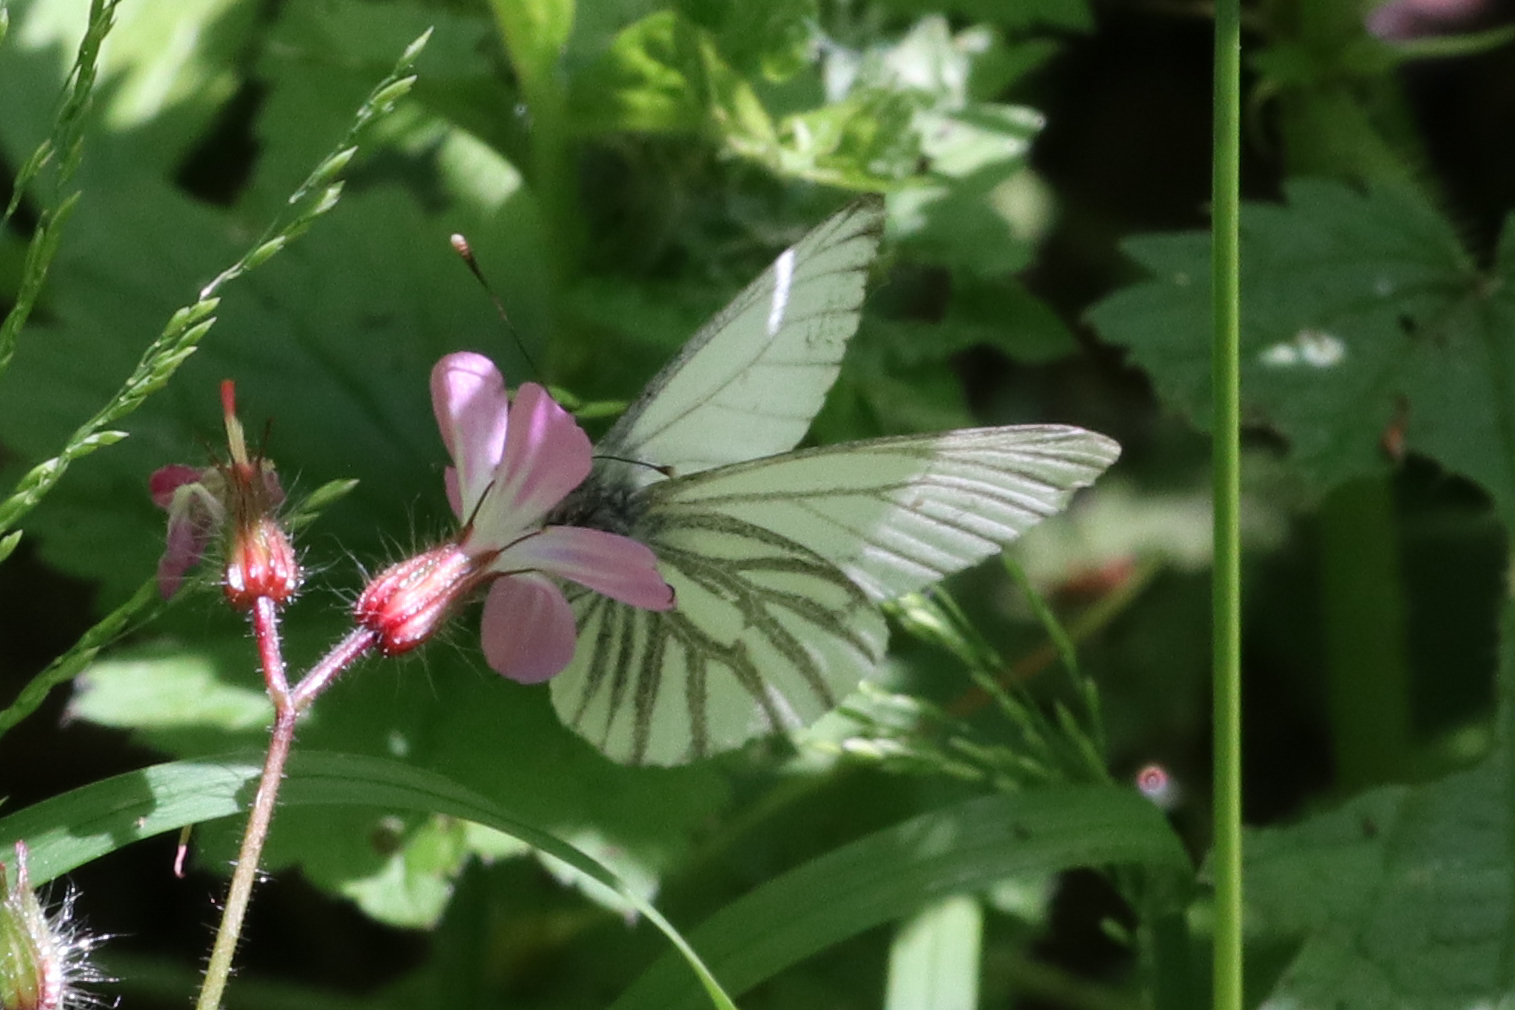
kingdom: Animalia
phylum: Arthropoda
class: Insecta
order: Lepidoptera
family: Pieridae
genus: Pieris
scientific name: Pieris napi
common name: Green-veined white
